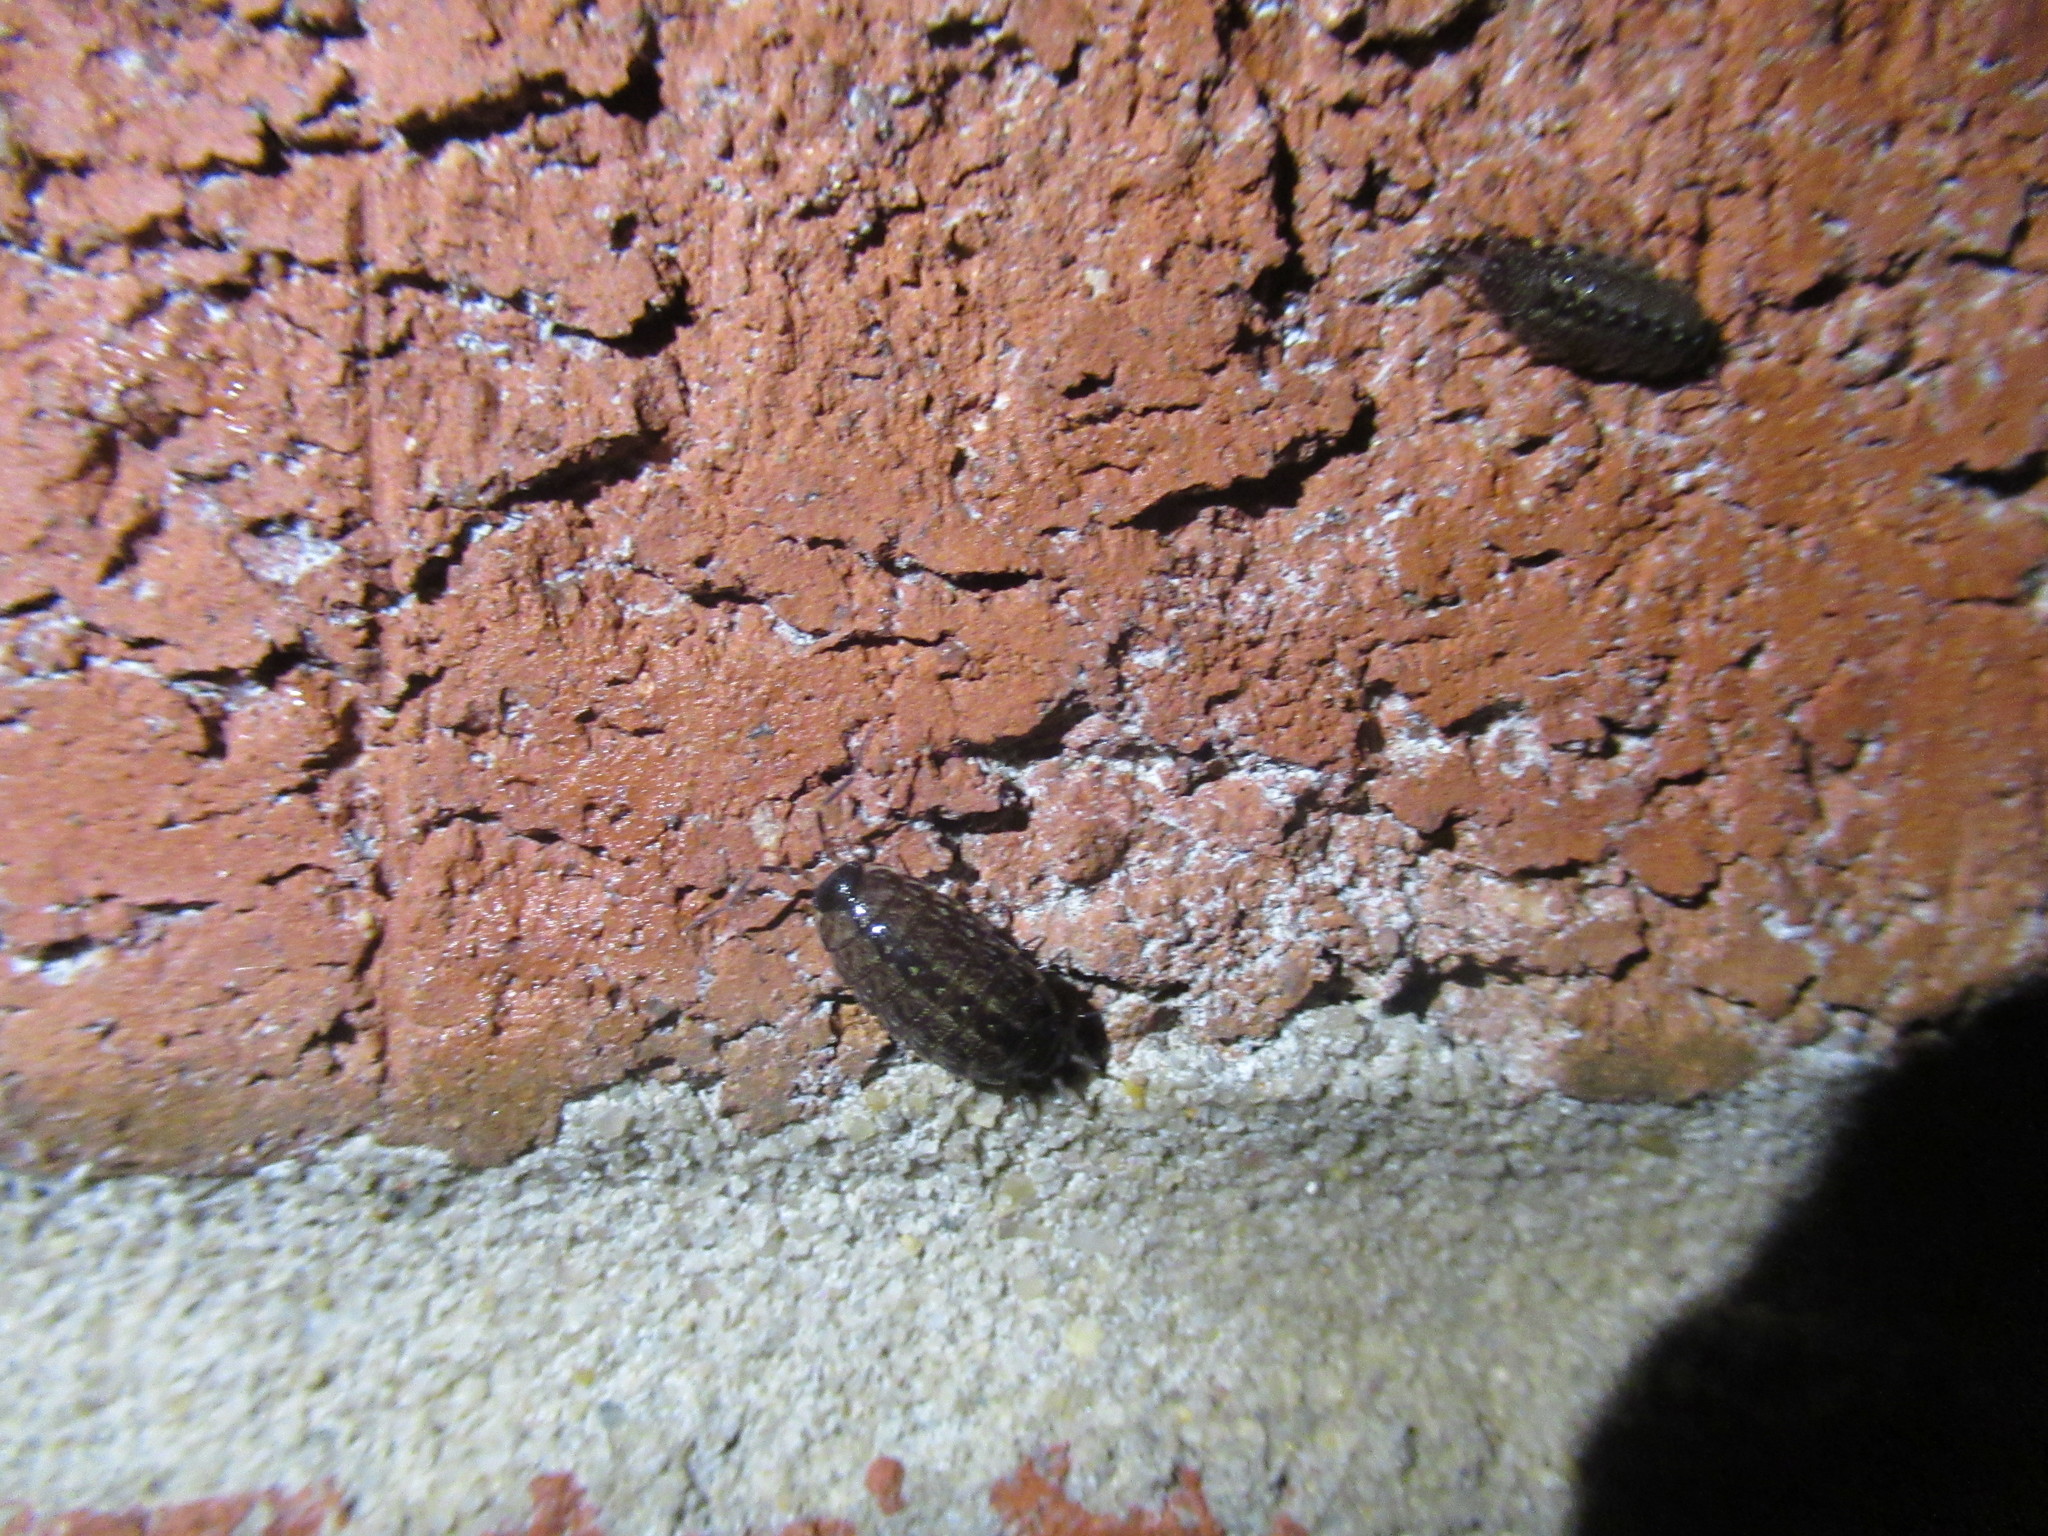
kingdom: Animalia
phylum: Arthropoda
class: Malacostraca
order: Isopoda
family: Philosciidae
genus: Philoscia
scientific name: Philoscia muscorum
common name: Common striped woodlouse
